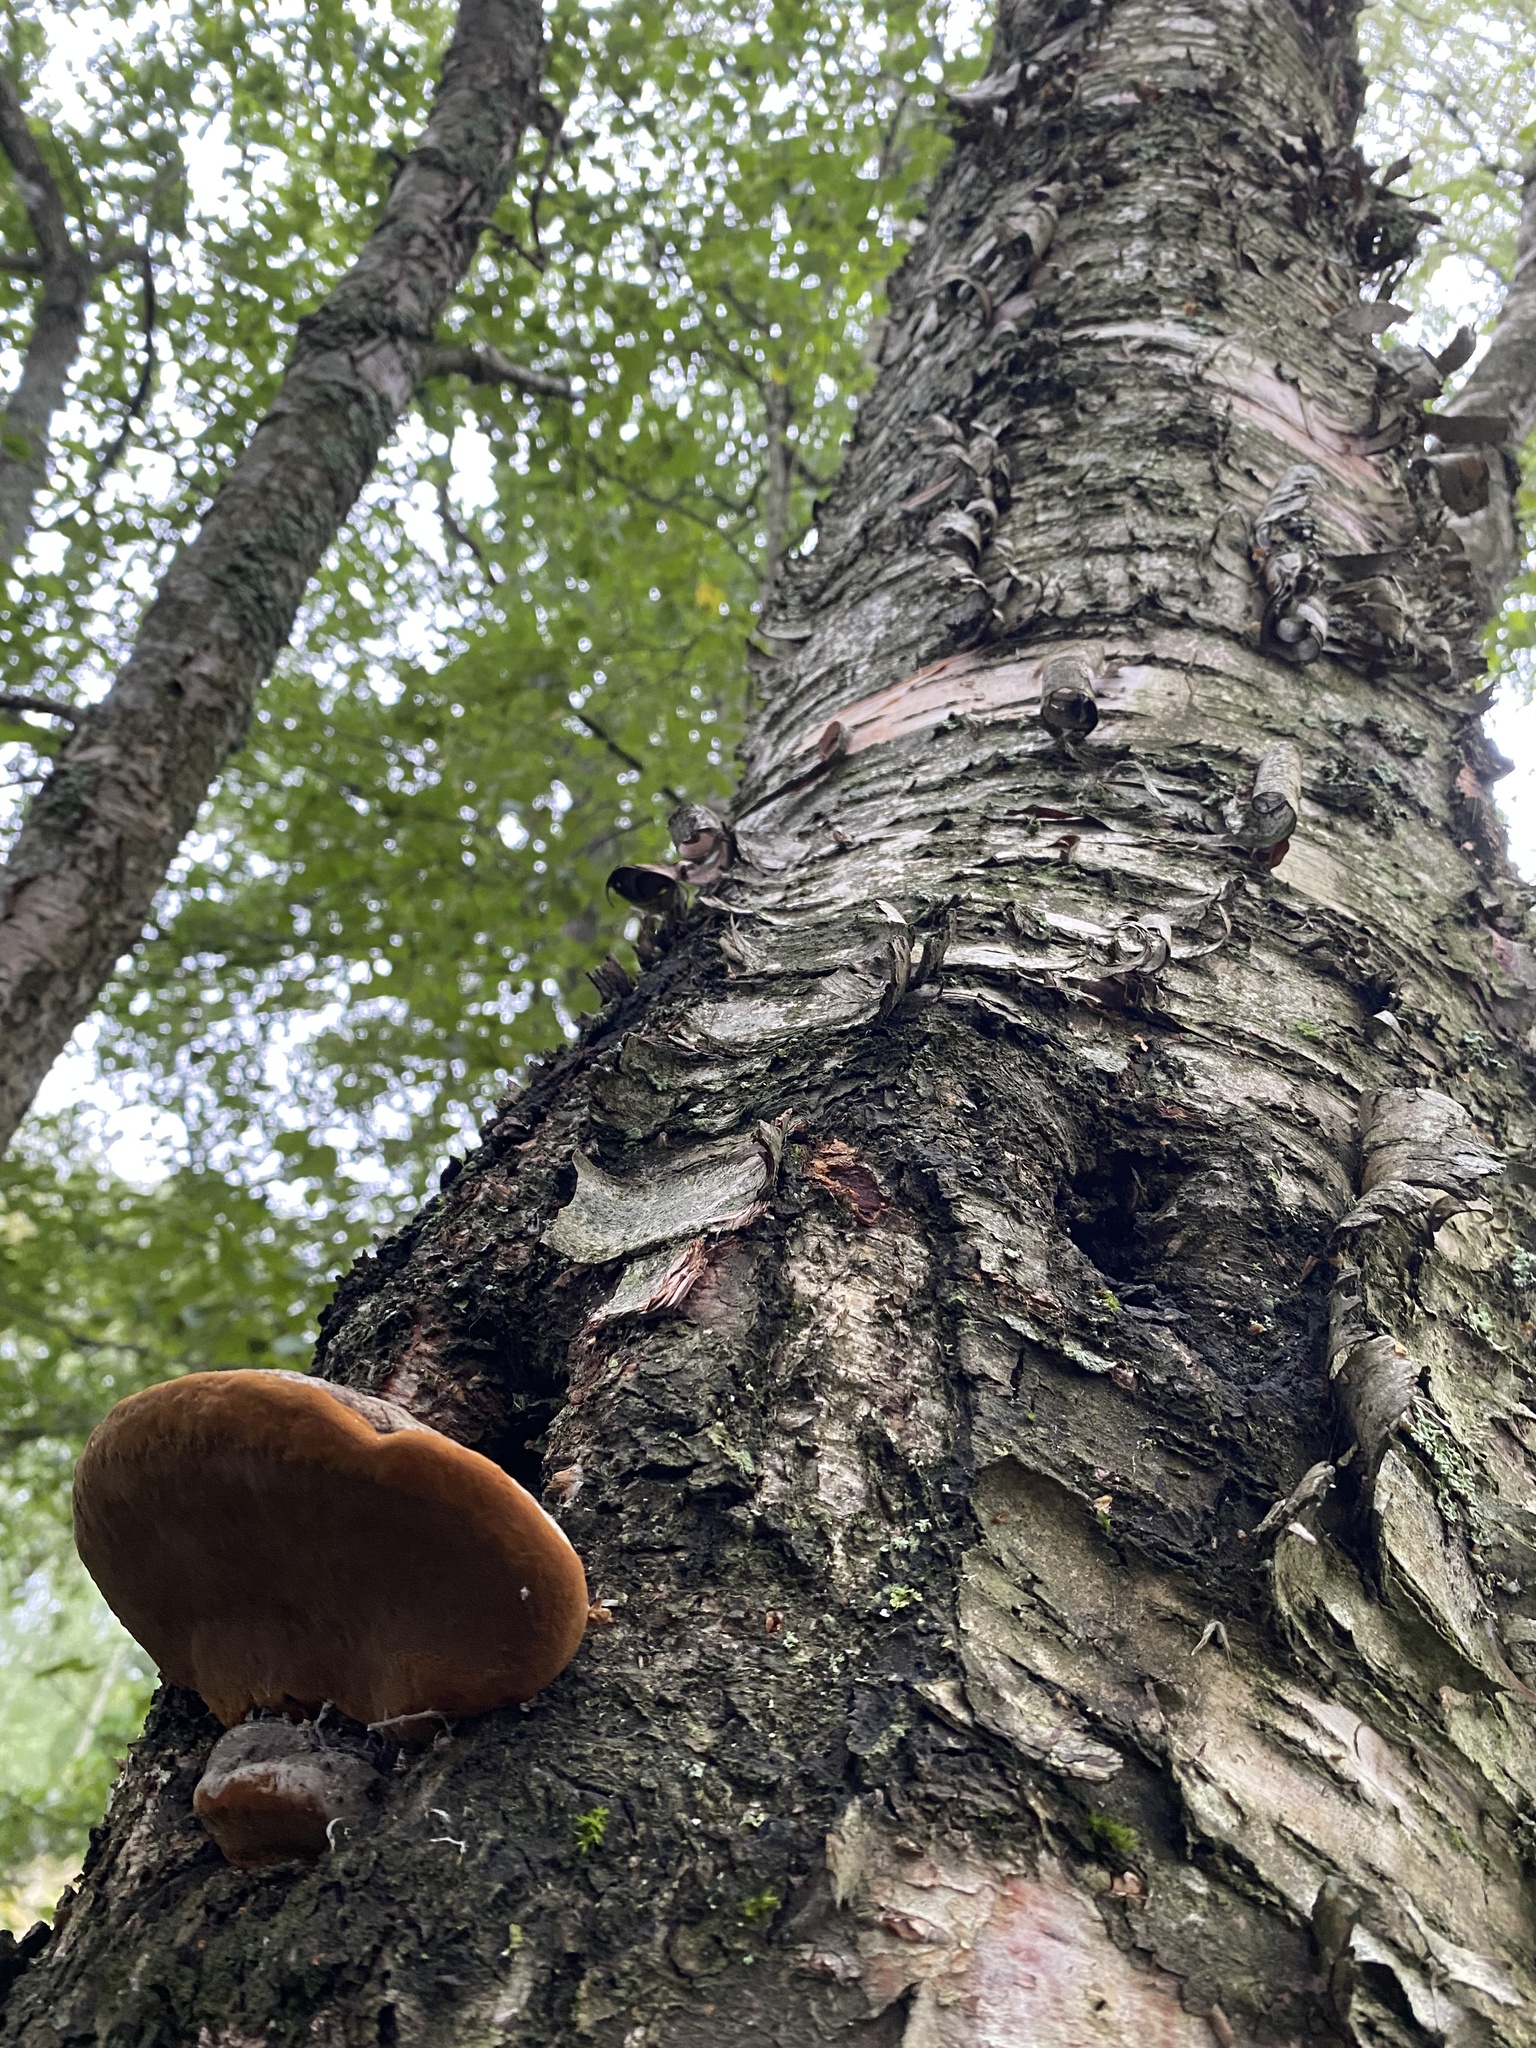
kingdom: Fungi
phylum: Basidiomycota
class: Agaricomycetes
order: Hymenochaetales
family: Hymenochaetaceae
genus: Phellinus
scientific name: Phellinus igniarius
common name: Willow bracket
